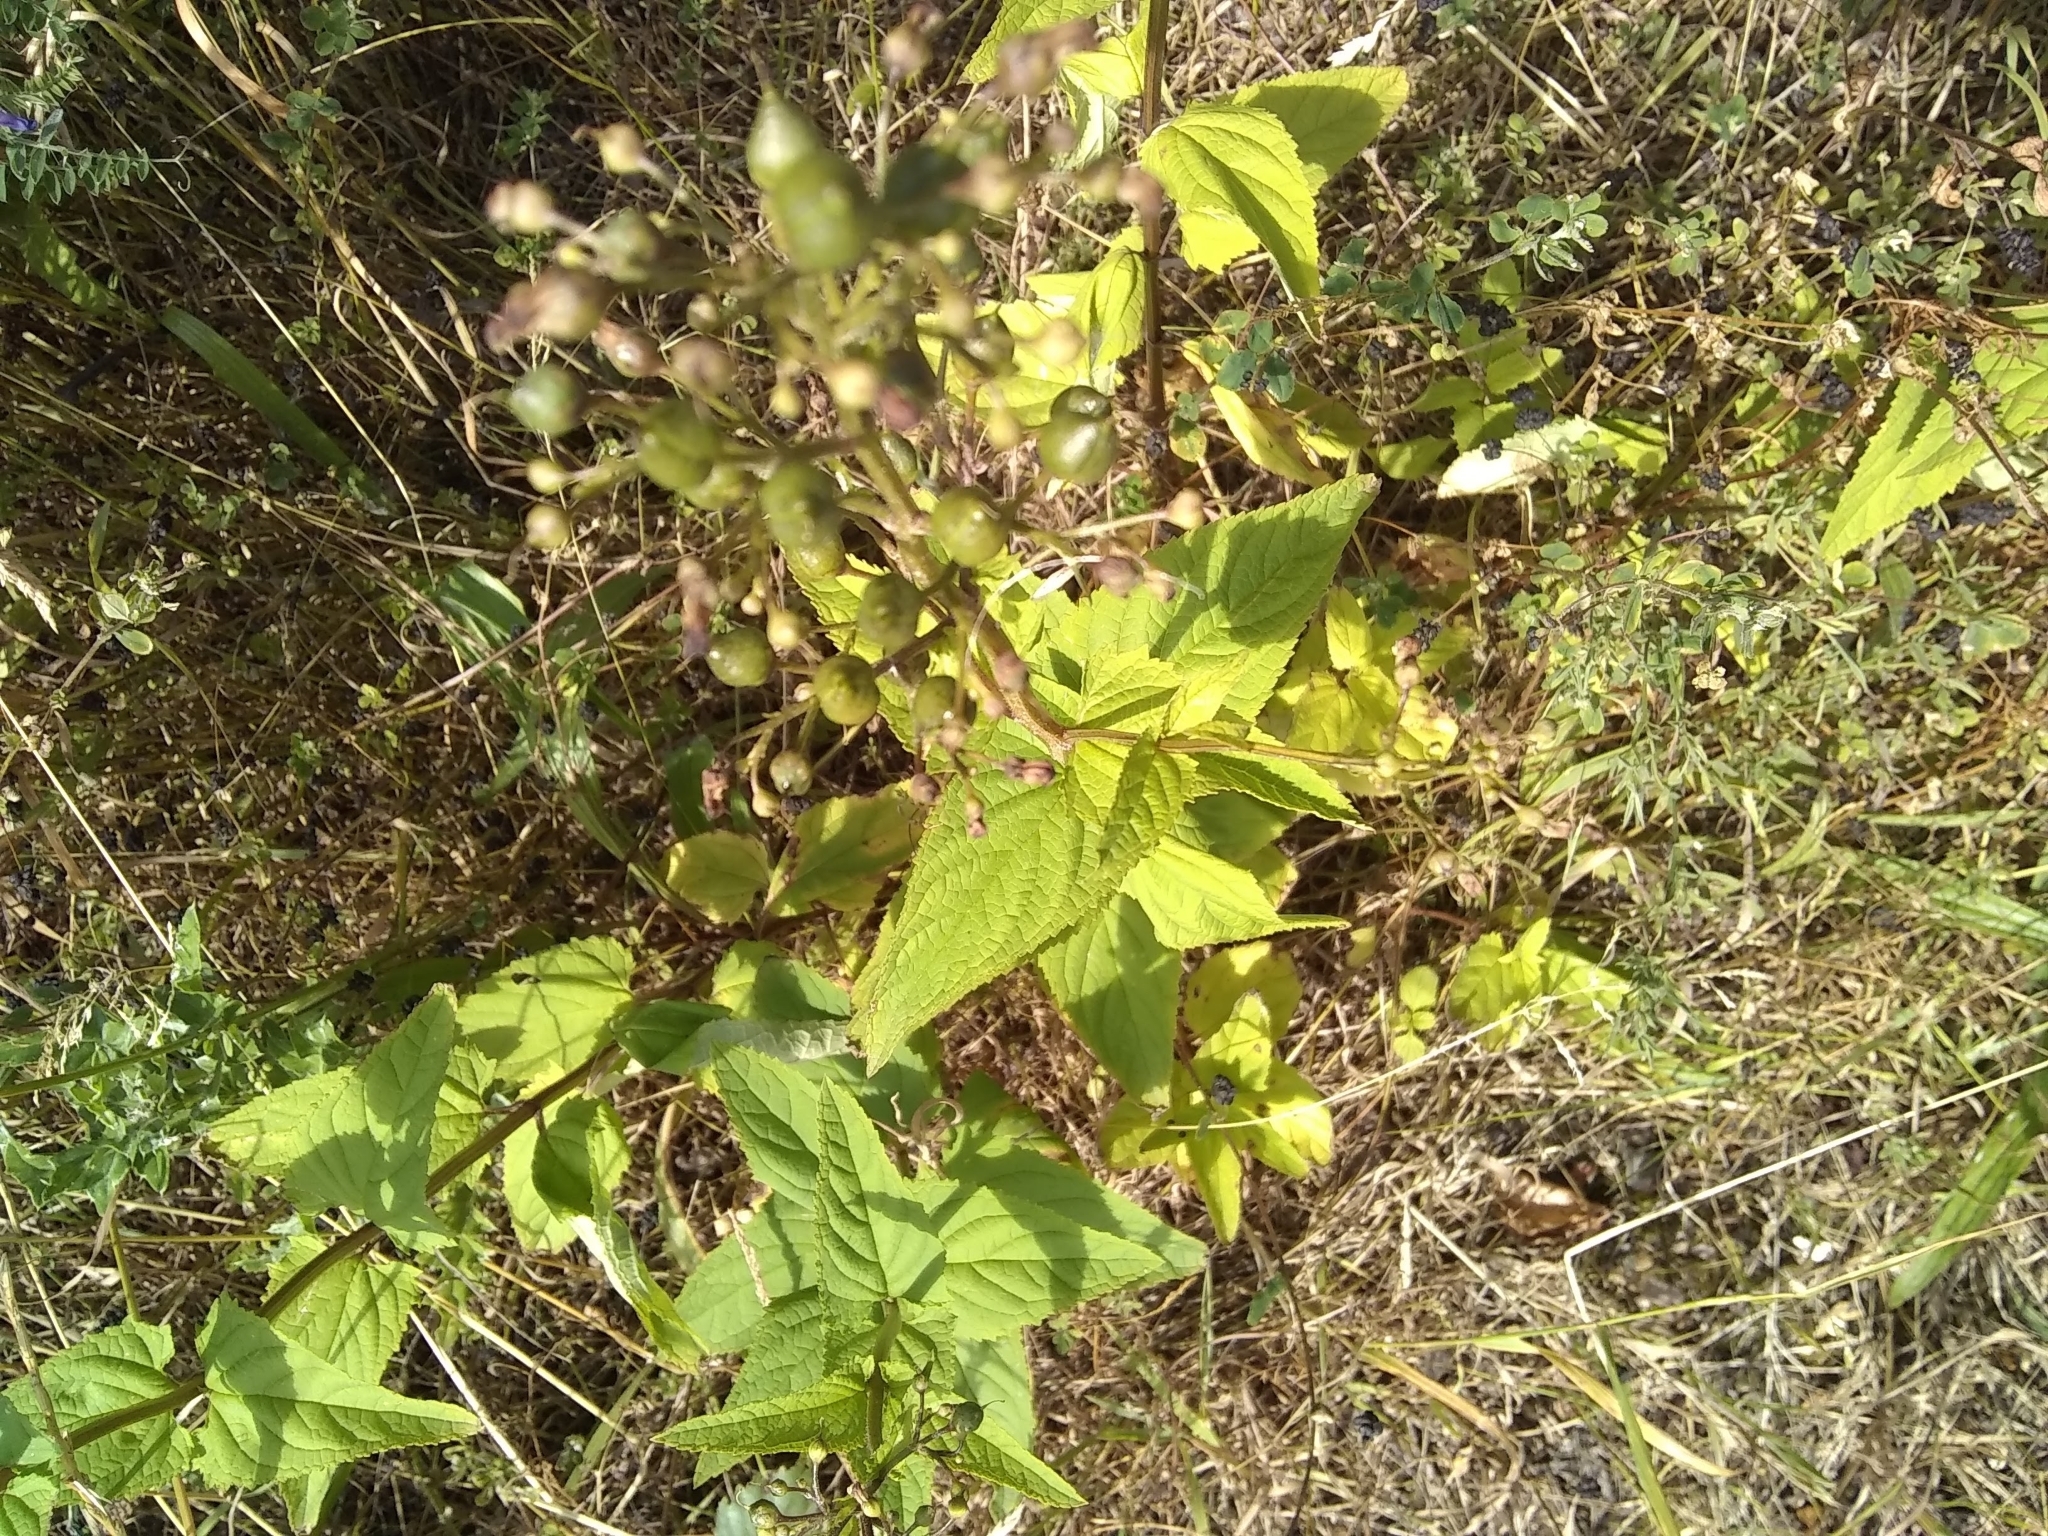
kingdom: Plantae
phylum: Tracheophyta
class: Magnoliopsida
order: Lamiales
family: Scrophulariaceae
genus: Scrophularia
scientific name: Scrophularia nodosa
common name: Common figwort
